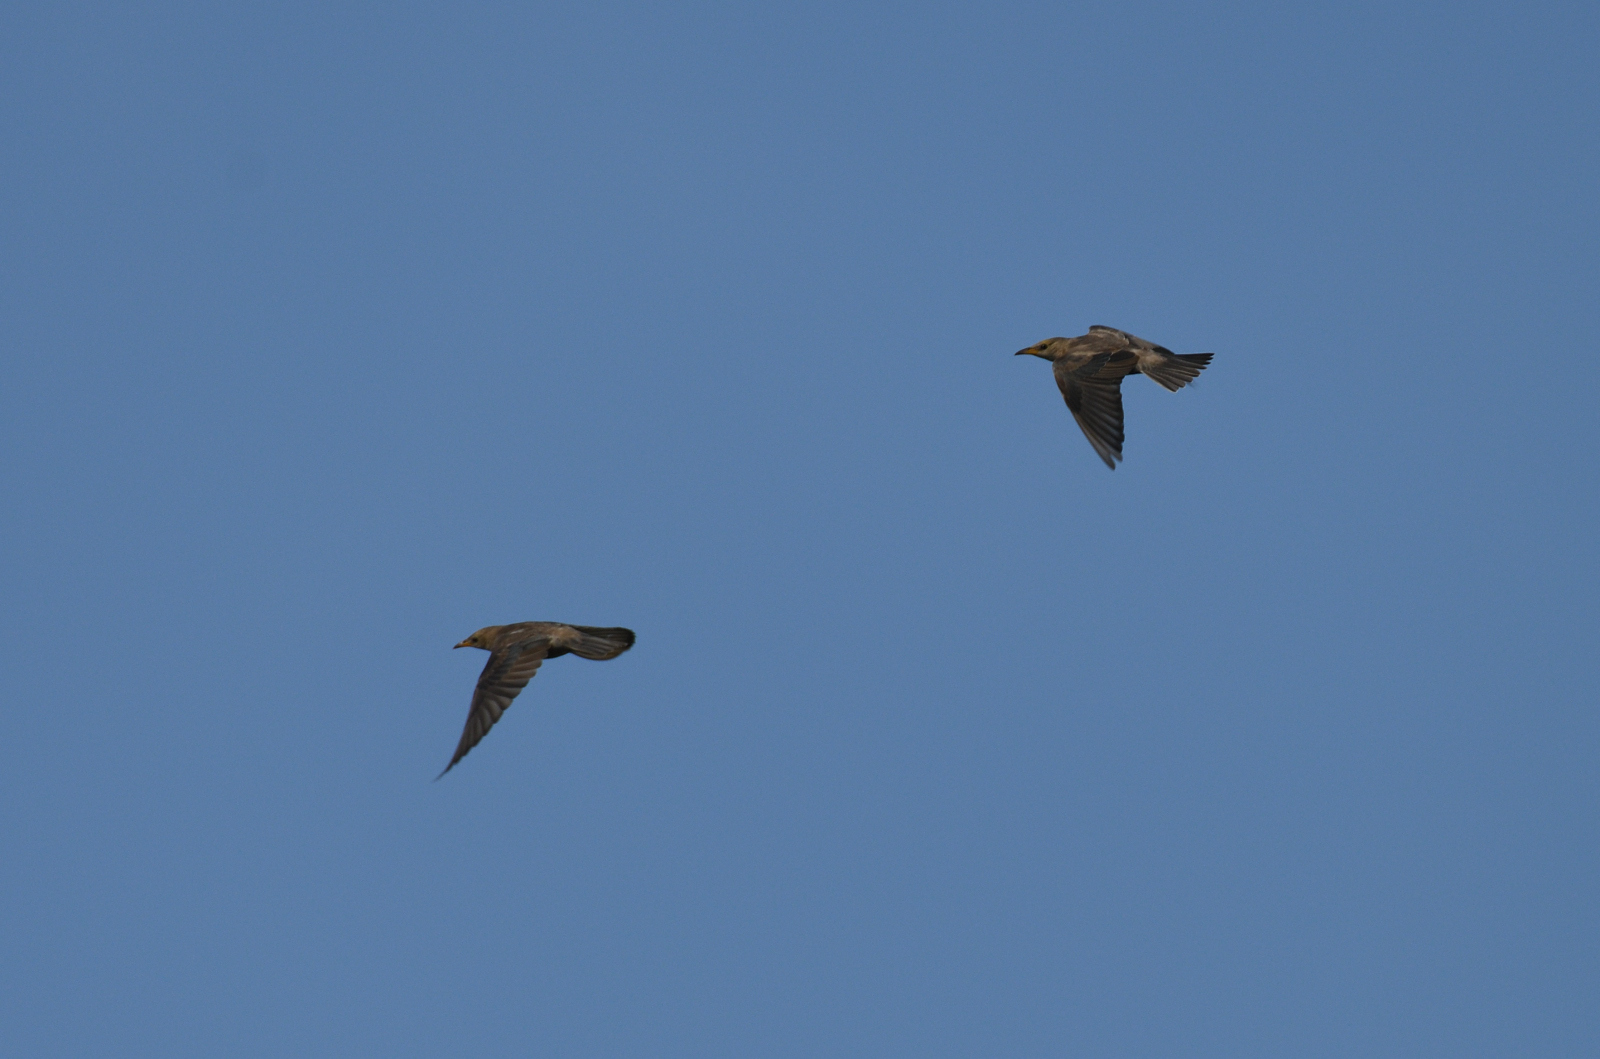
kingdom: Animalia
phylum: Chordata
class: Aves
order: Passeriformes
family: Sturnidae
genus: Pastor
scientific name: Pastor roseus
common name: Rosy starling
